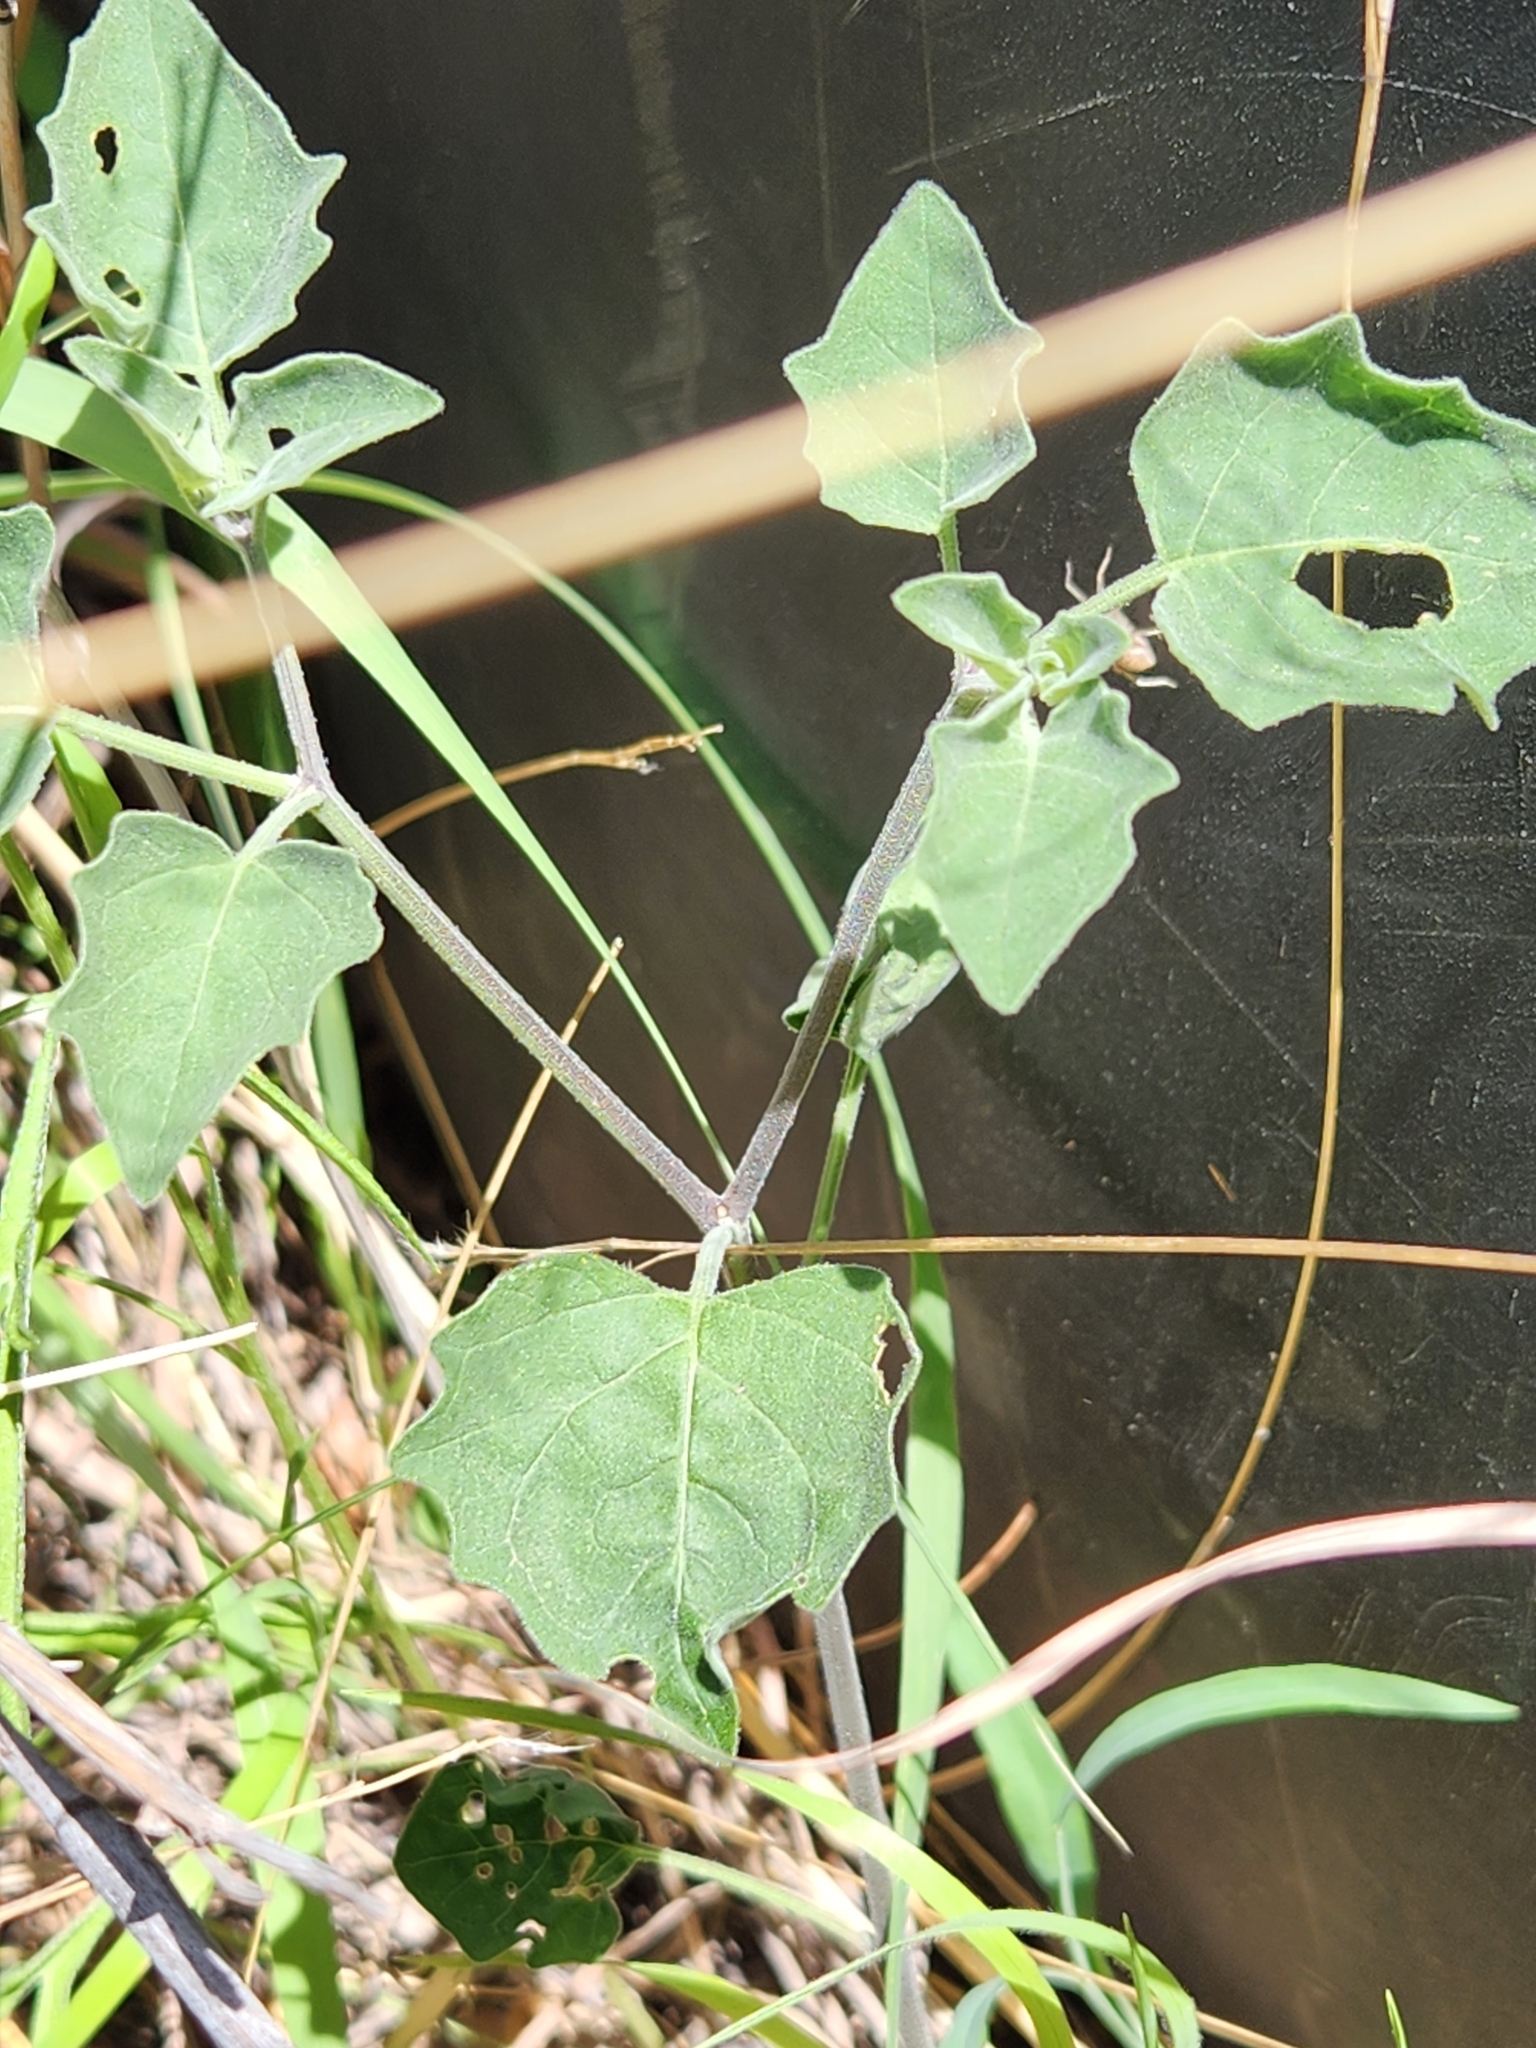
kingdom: Plantae
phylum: Tracheophyta
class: Magnoliopsida
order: Solanales
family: Solanaceae
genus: Physalis
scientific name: Physalis cinerascens
